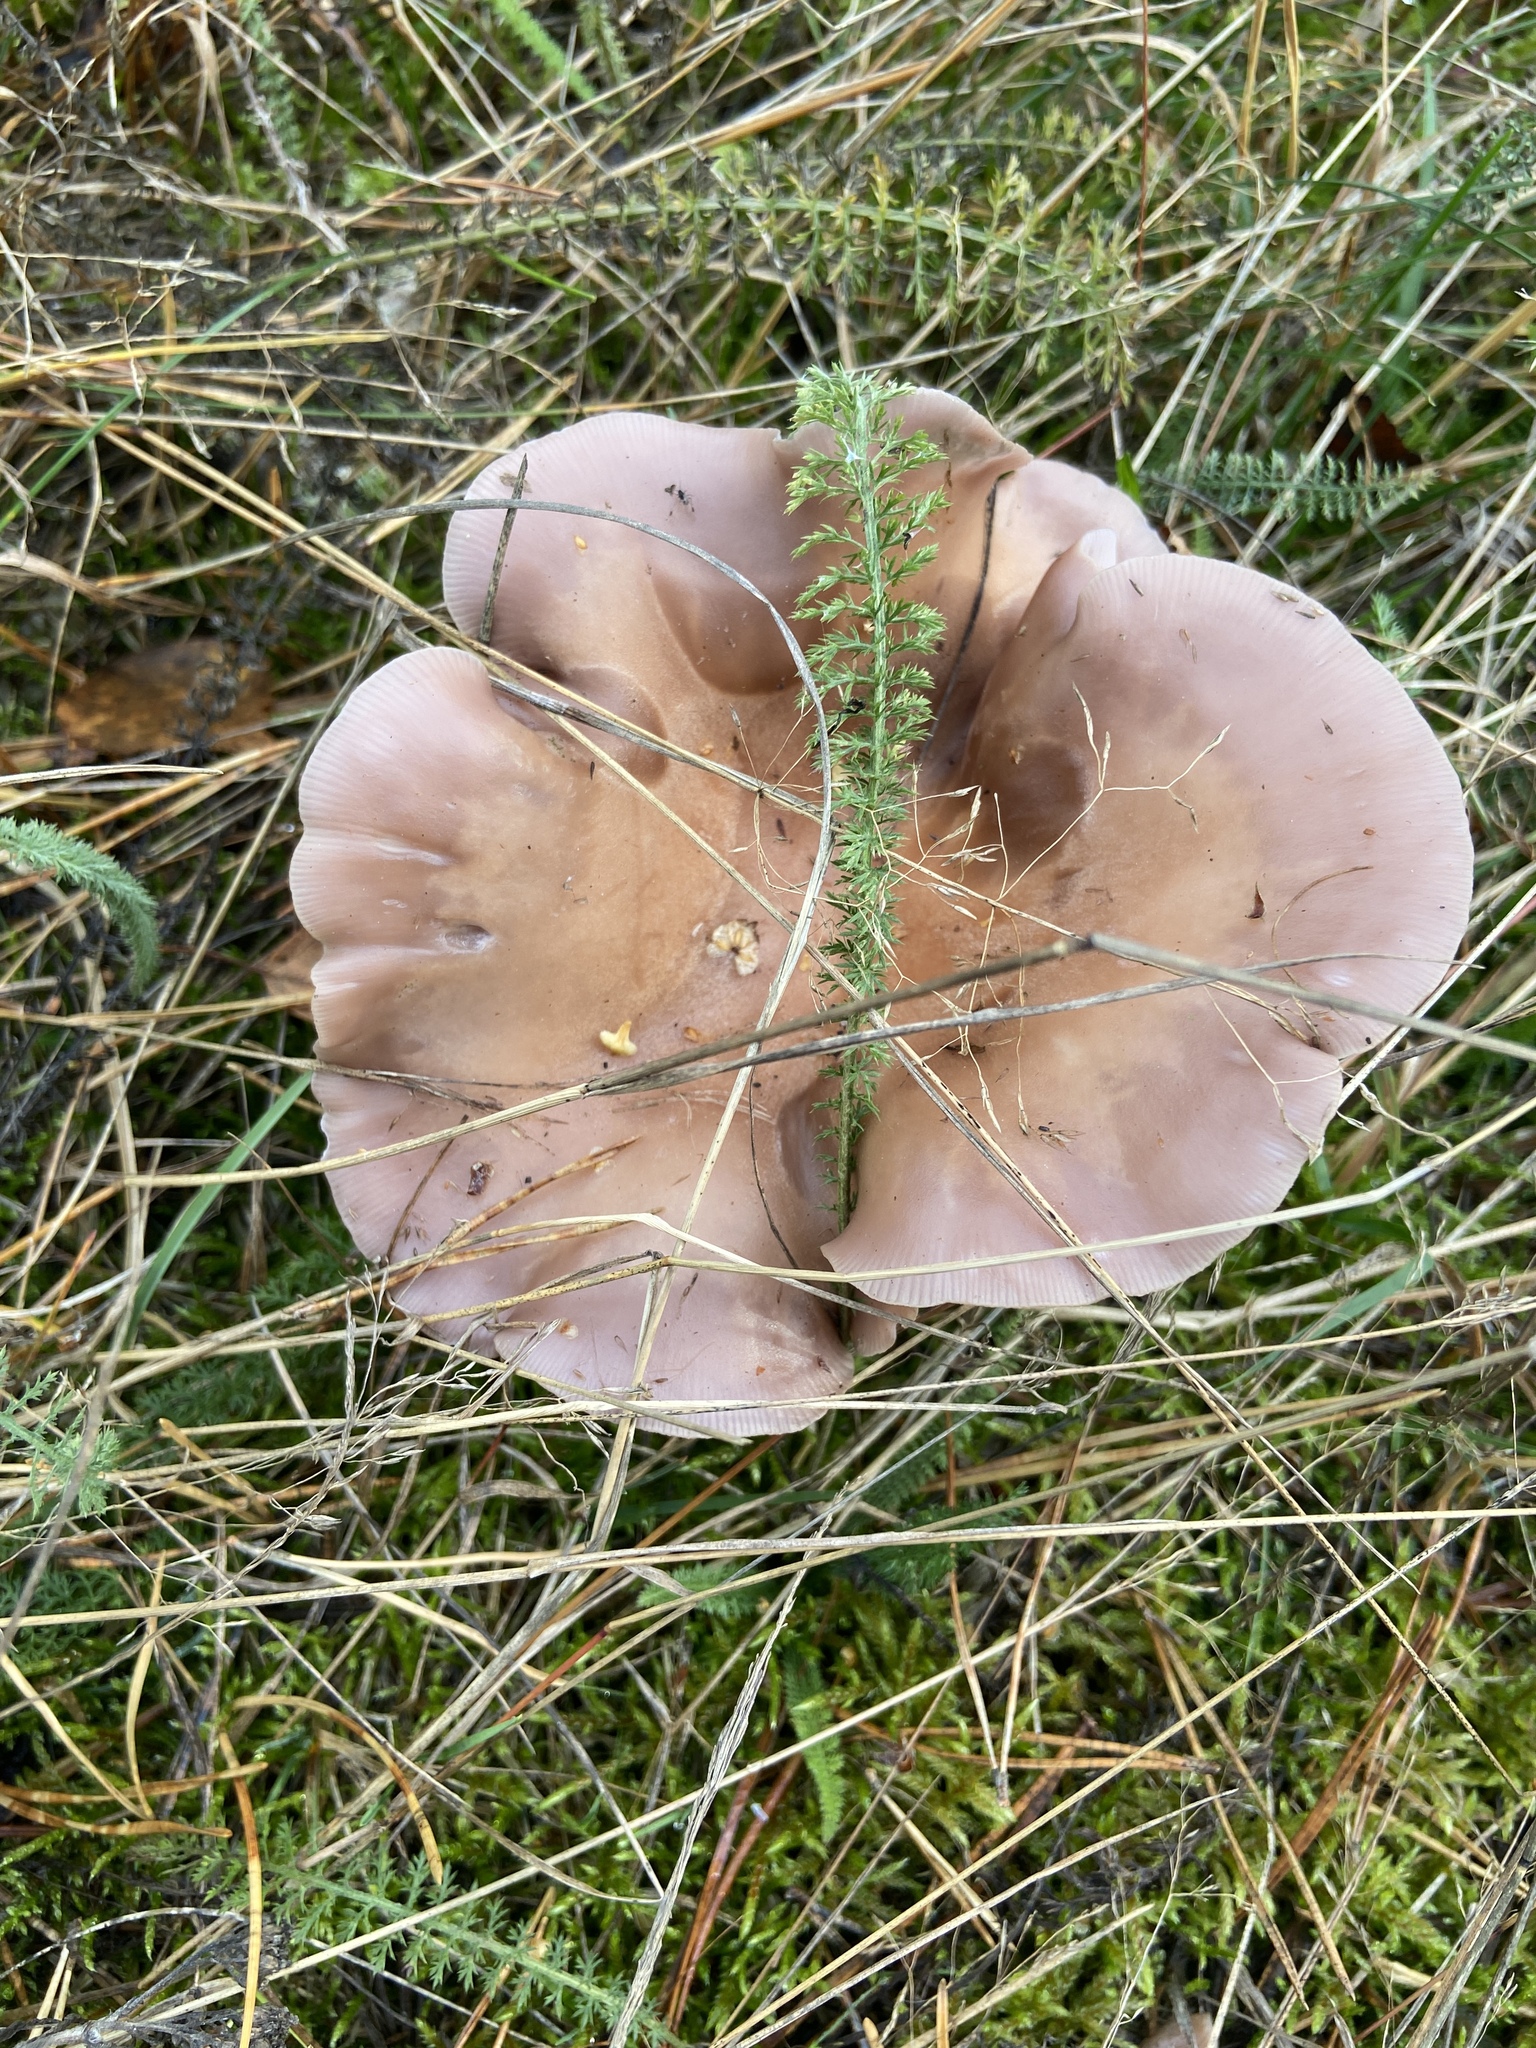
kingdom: Fungi
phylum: Basidiomycota
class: Agaricomycetes
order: Agaricales
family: Omphalotaceae
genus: Collybiopsis
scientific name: Collybiopsis peronata
